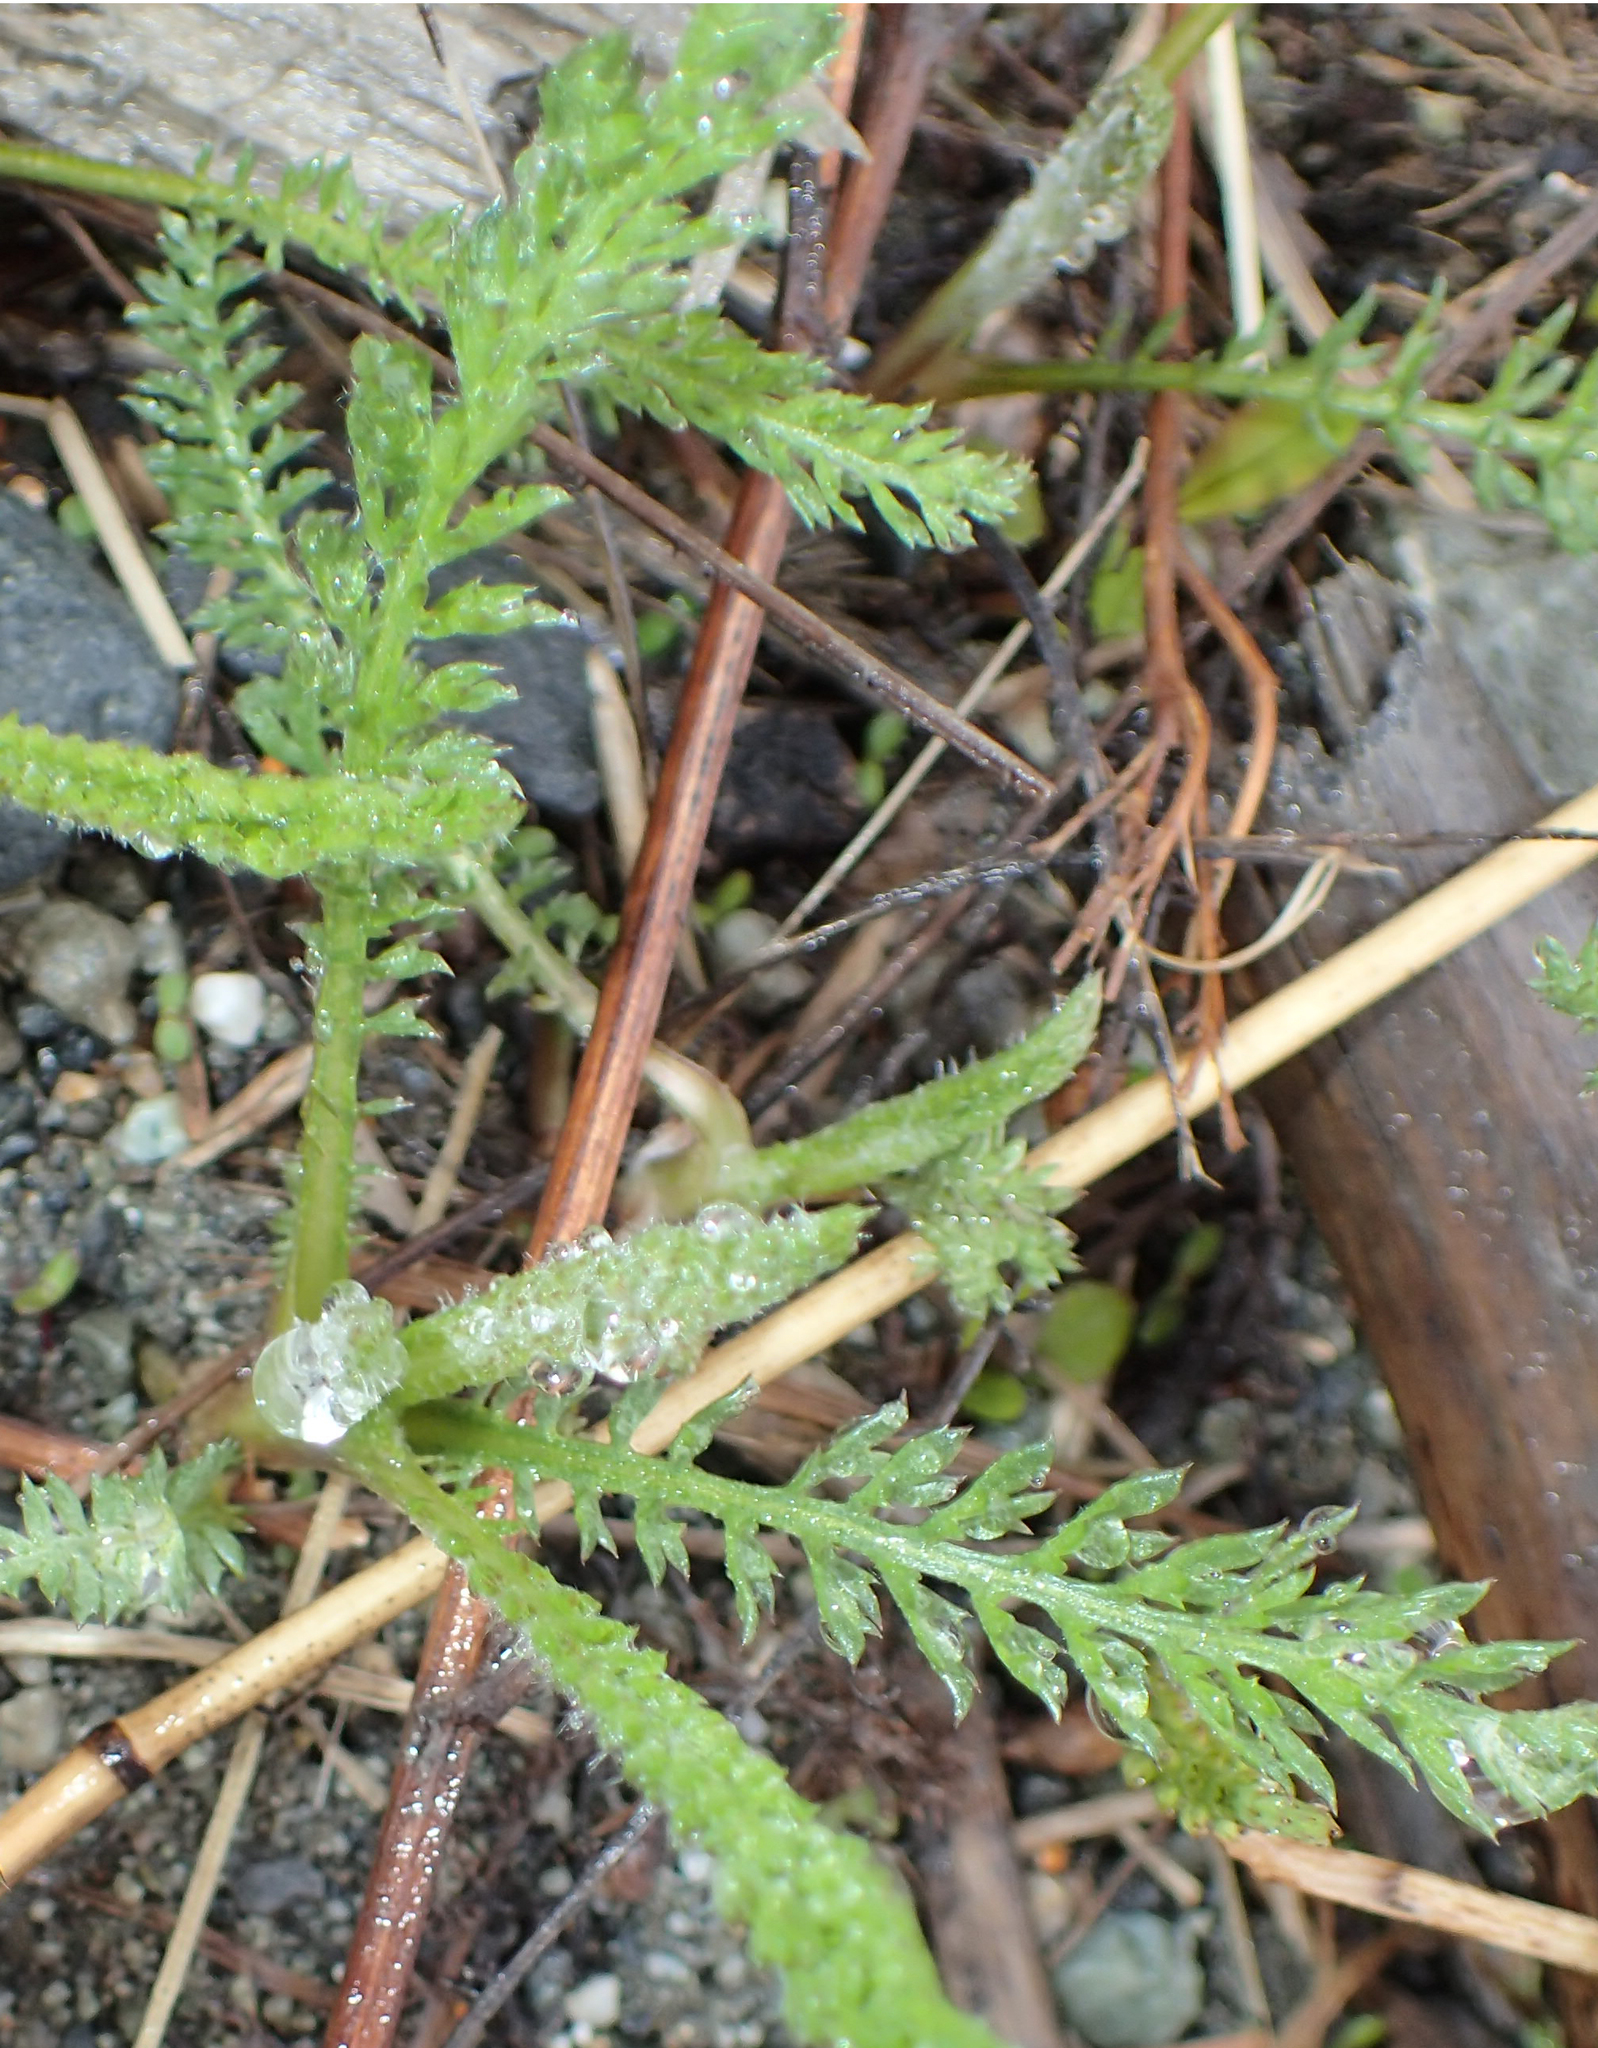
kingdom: Plantae
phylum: Tracheophyta
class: Magnoliopsida
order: Asterales
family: Asteraceae
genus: Achillea
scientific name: Achillea millefolium
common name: Yarrow
